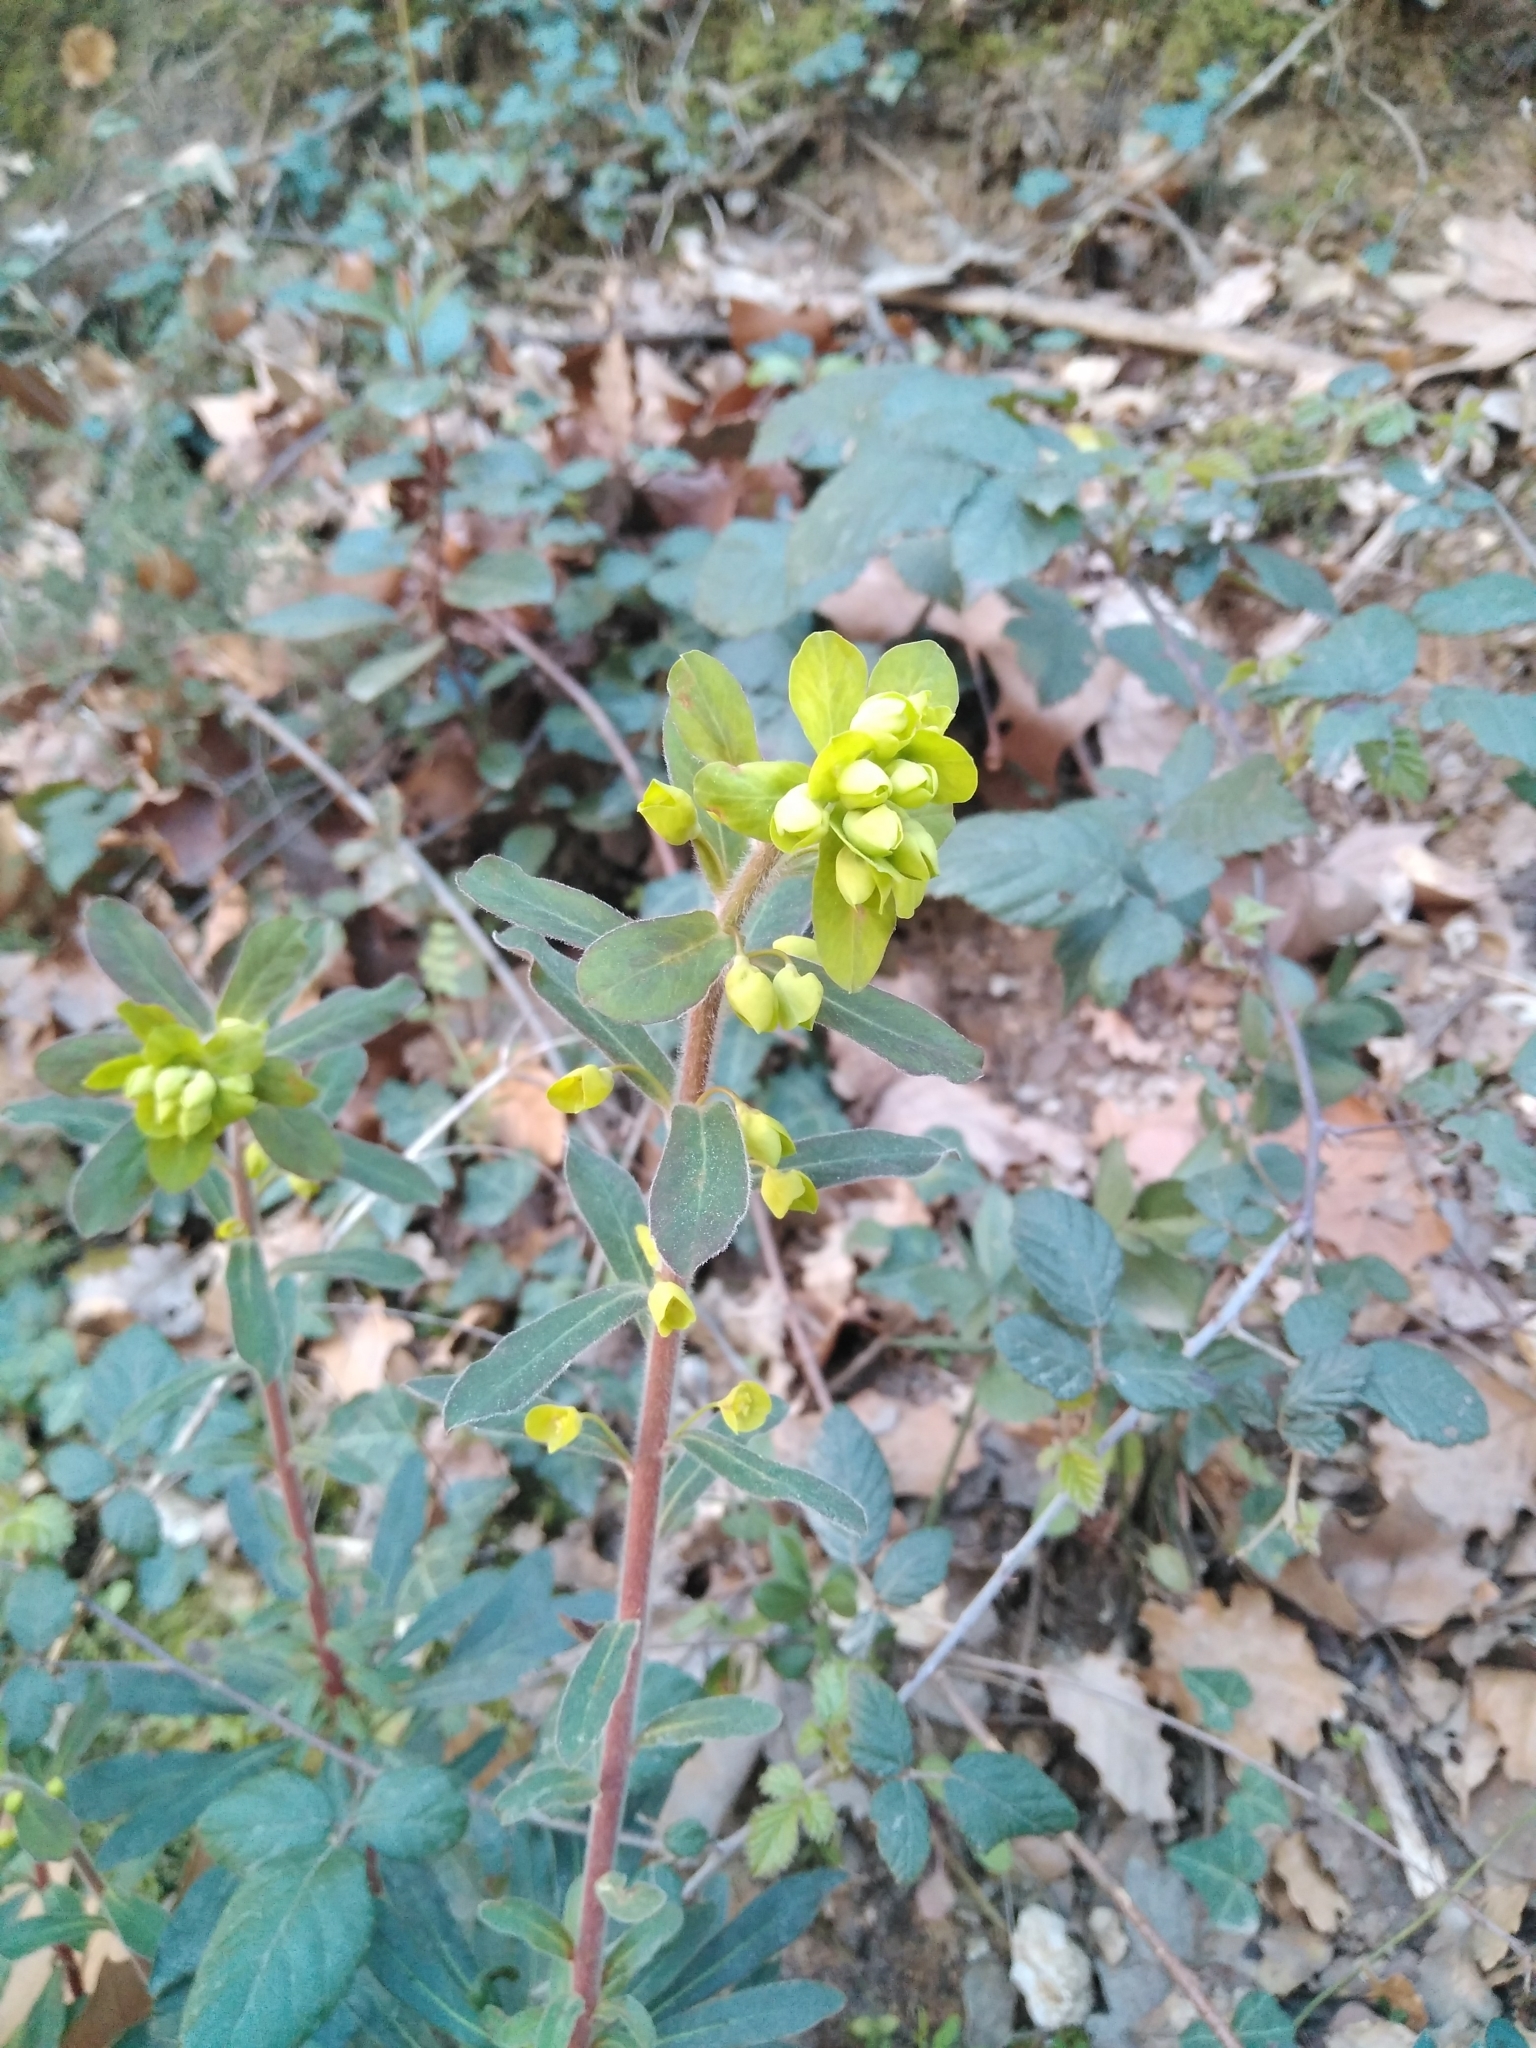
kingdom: Plantae
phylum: Tracheophyta
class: Magnoliopsida
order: Malpighiales
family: Euphorbiaceae
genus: Euphorbia
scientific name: Euphorbia amygdaloides
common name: Wood spurge
